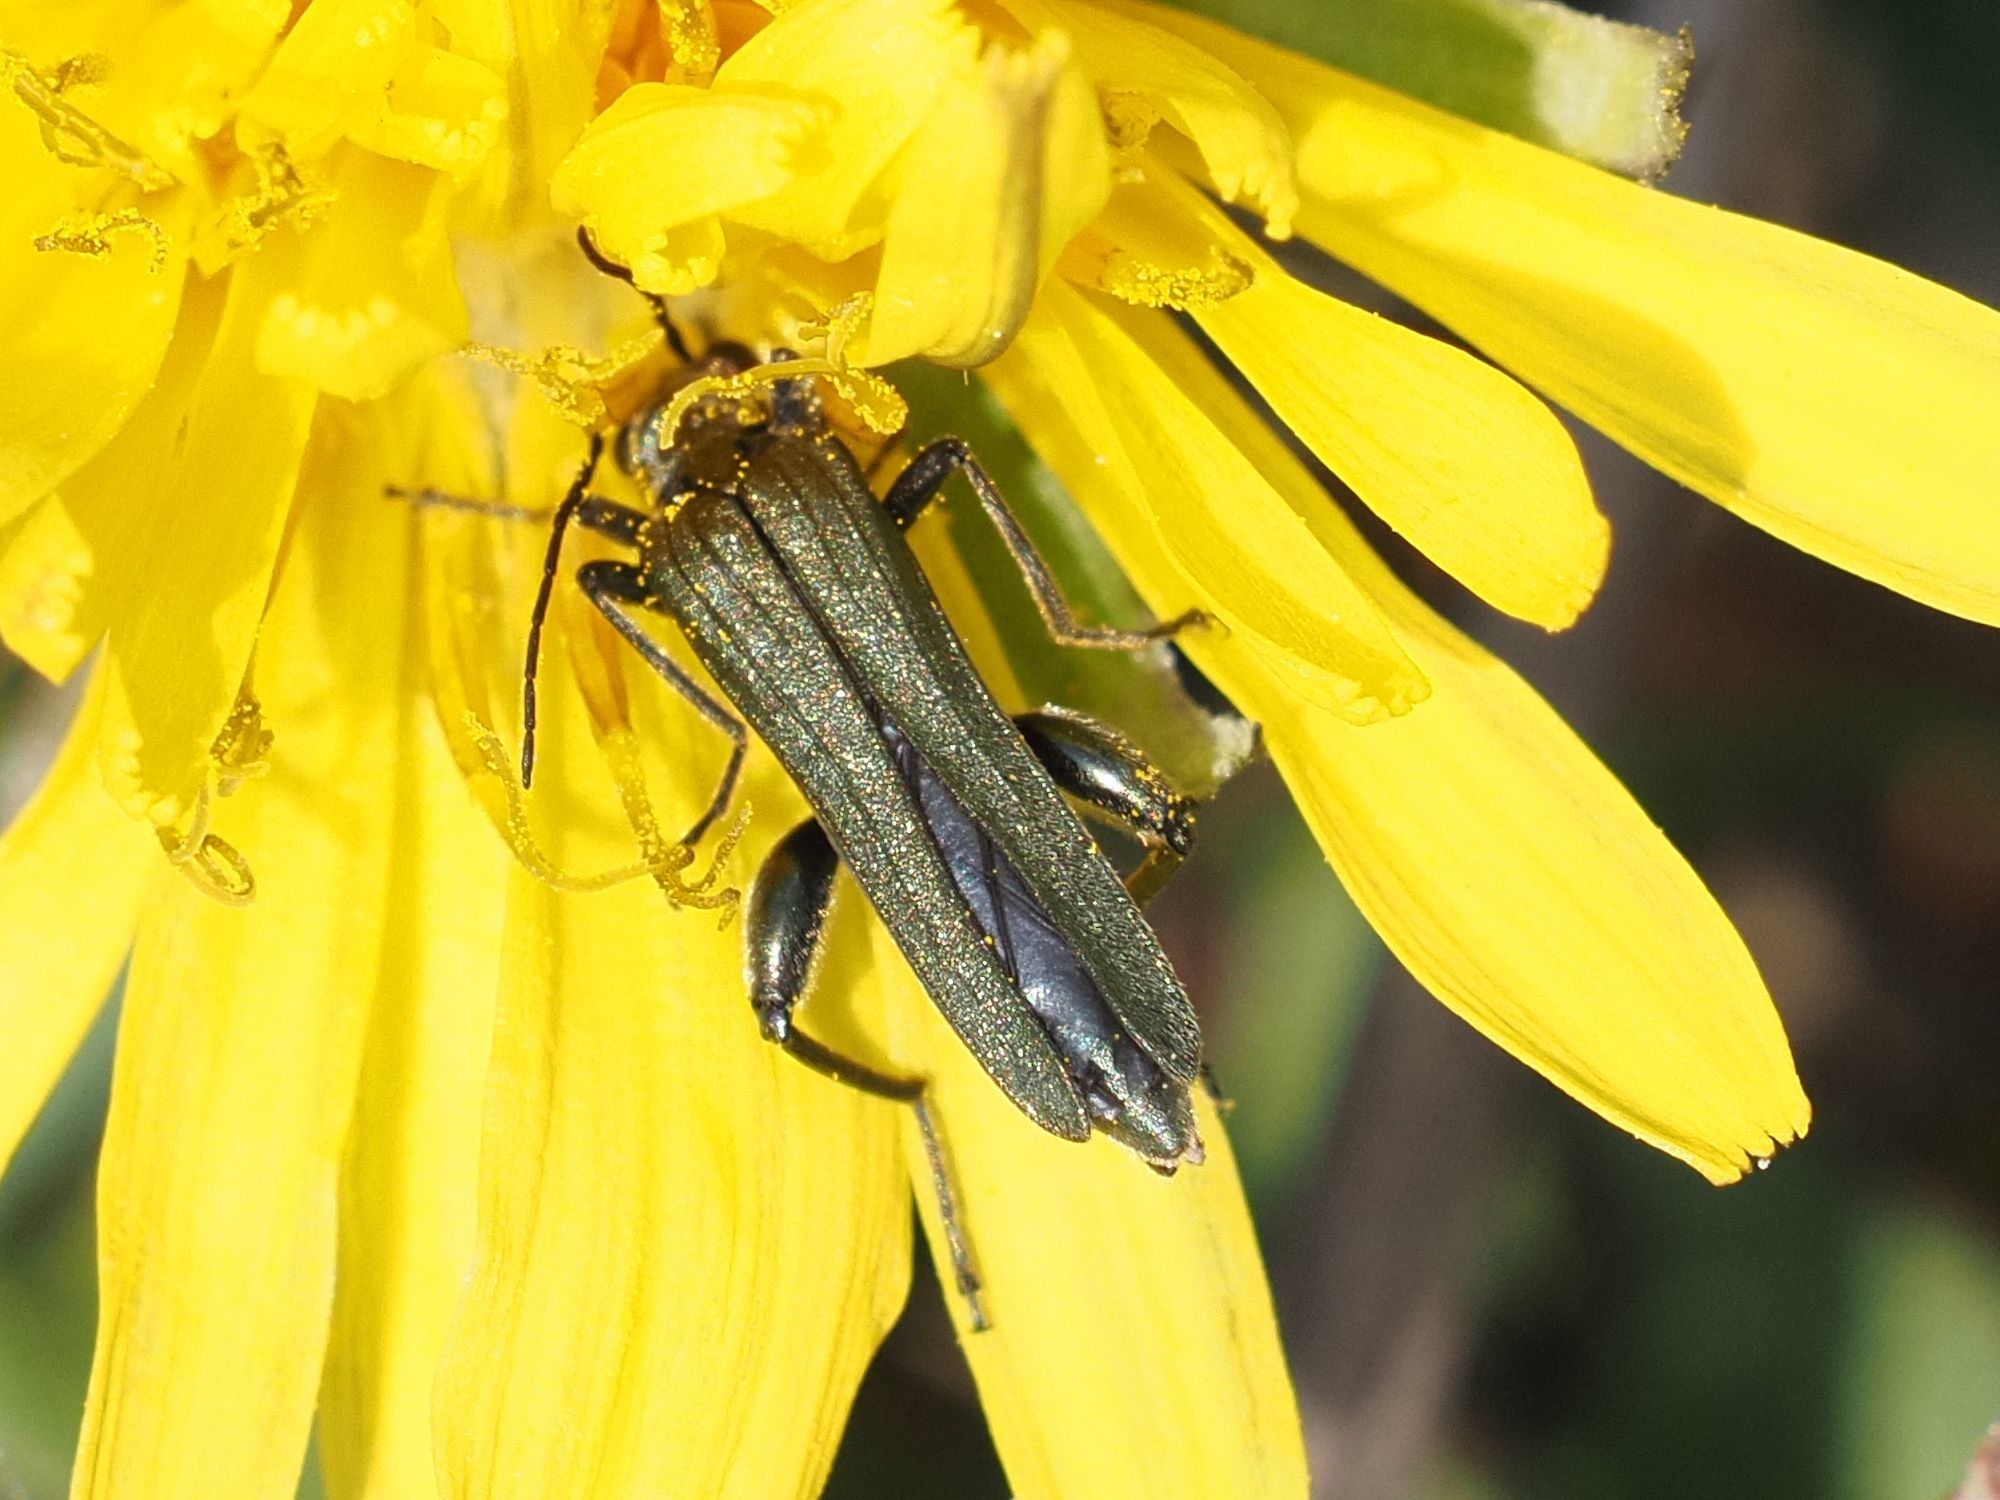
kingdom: Animalia
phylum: Arthropoda
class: Insecta
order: Coleoptera
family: Oedemeridae
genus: Oedemera
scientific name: Oedemera virescens
